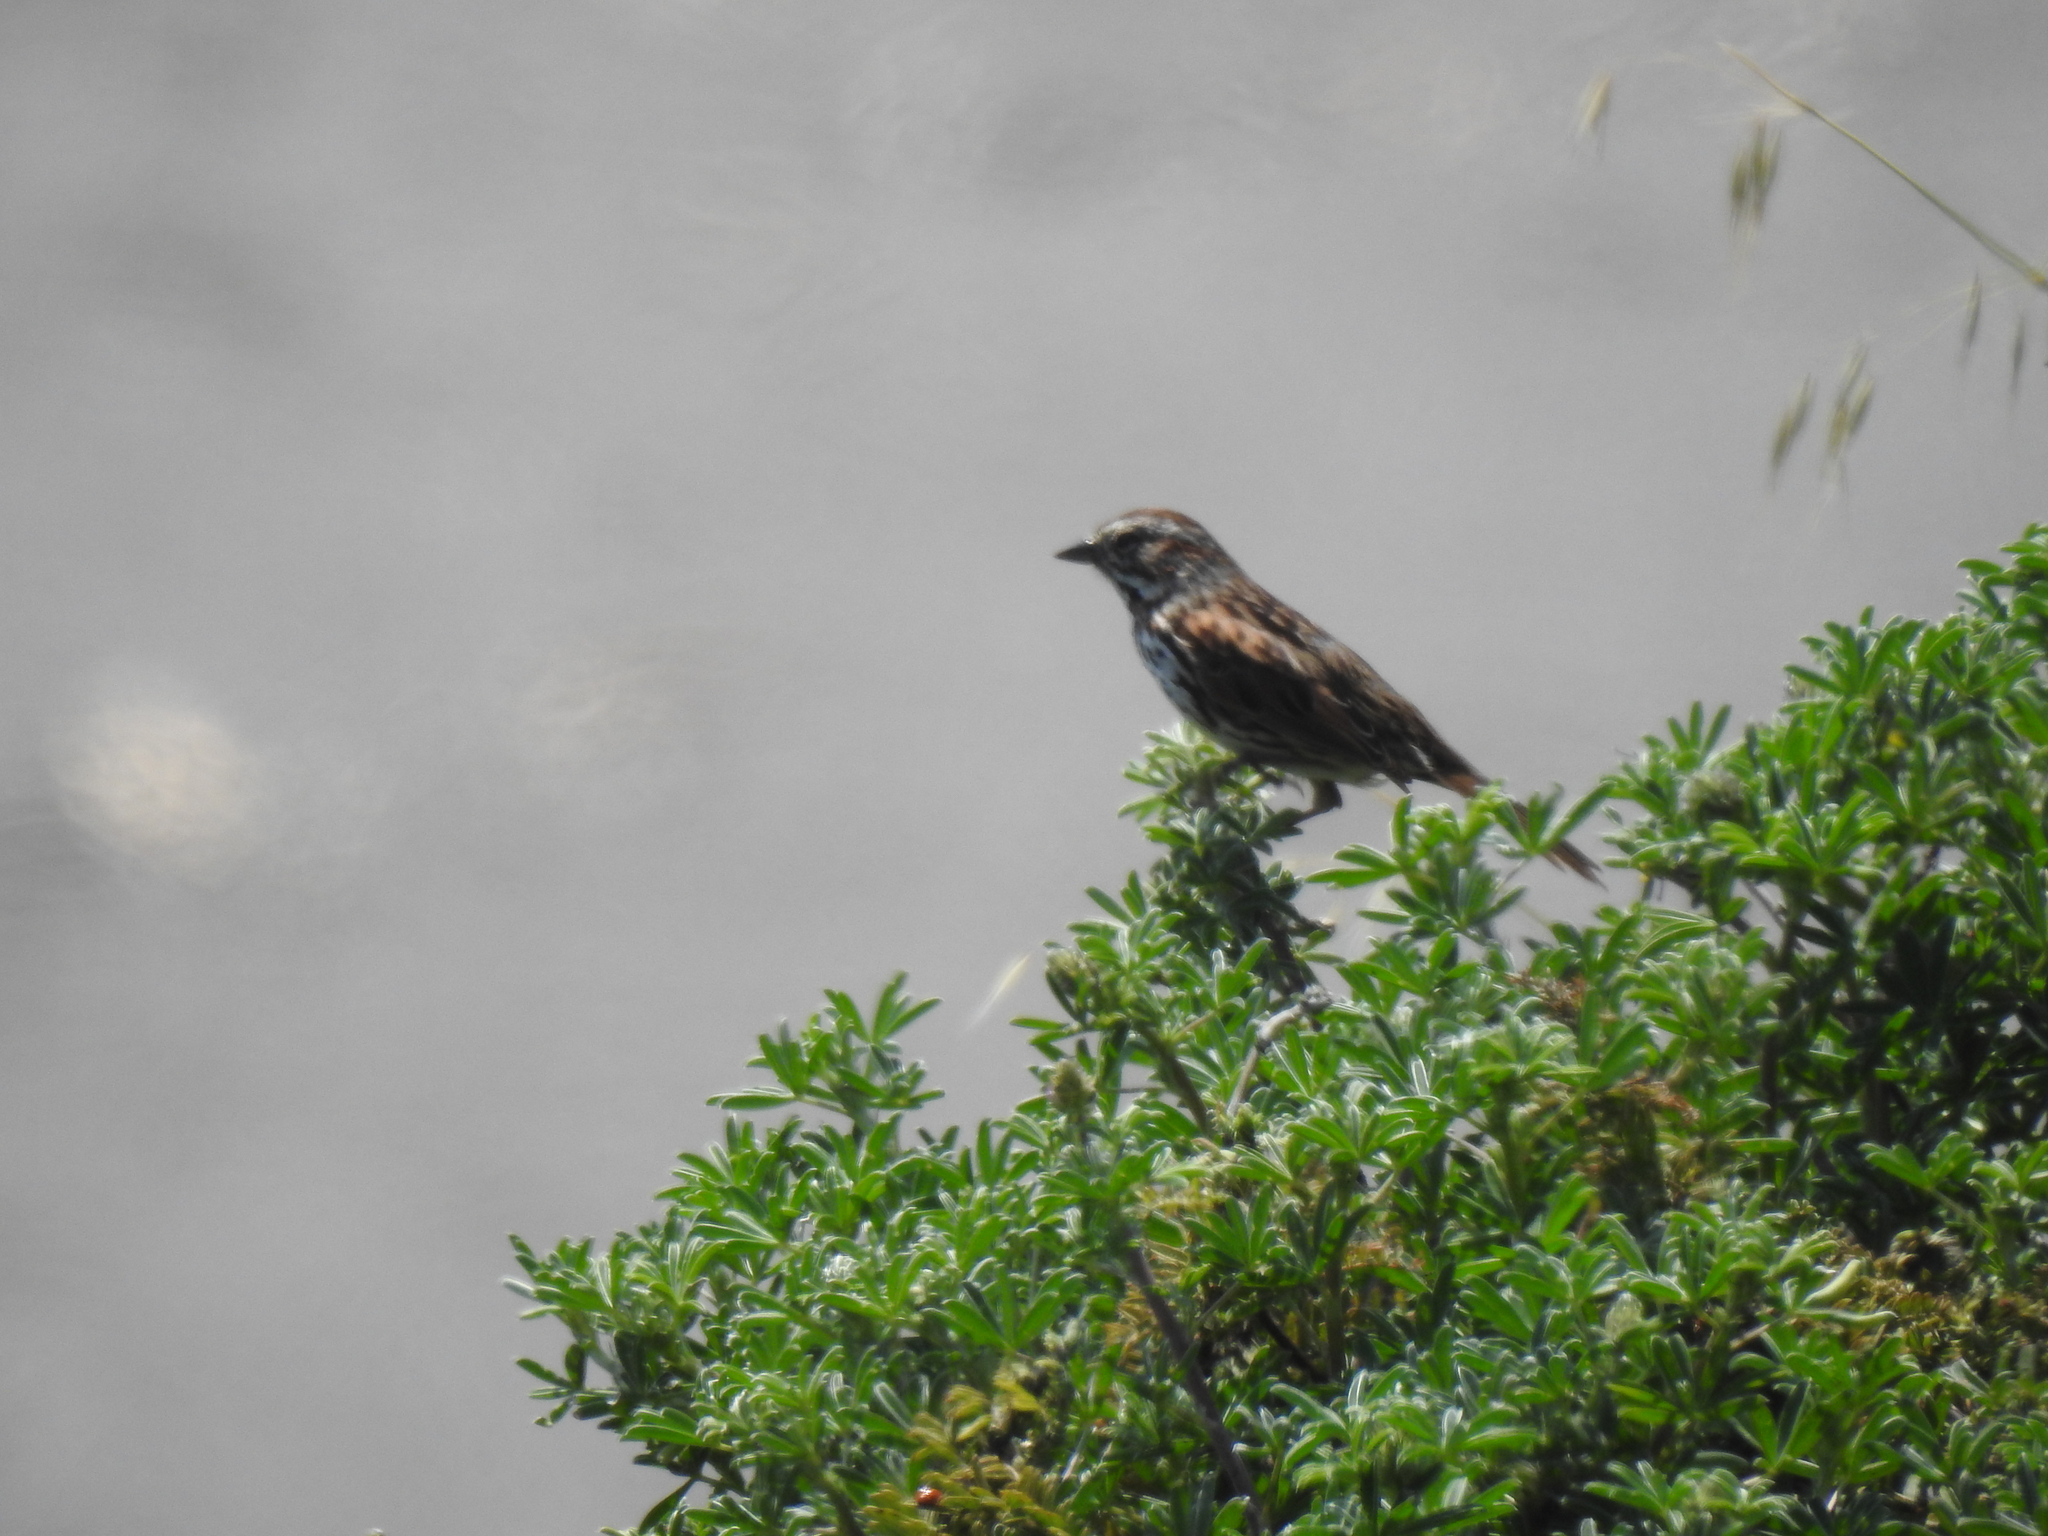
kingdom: Animalia
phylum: Chordata
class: Aves
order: Passeriformes
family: Passerellidae
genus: Melospiza
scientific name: Melospiza melodia
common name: Song sparrow
